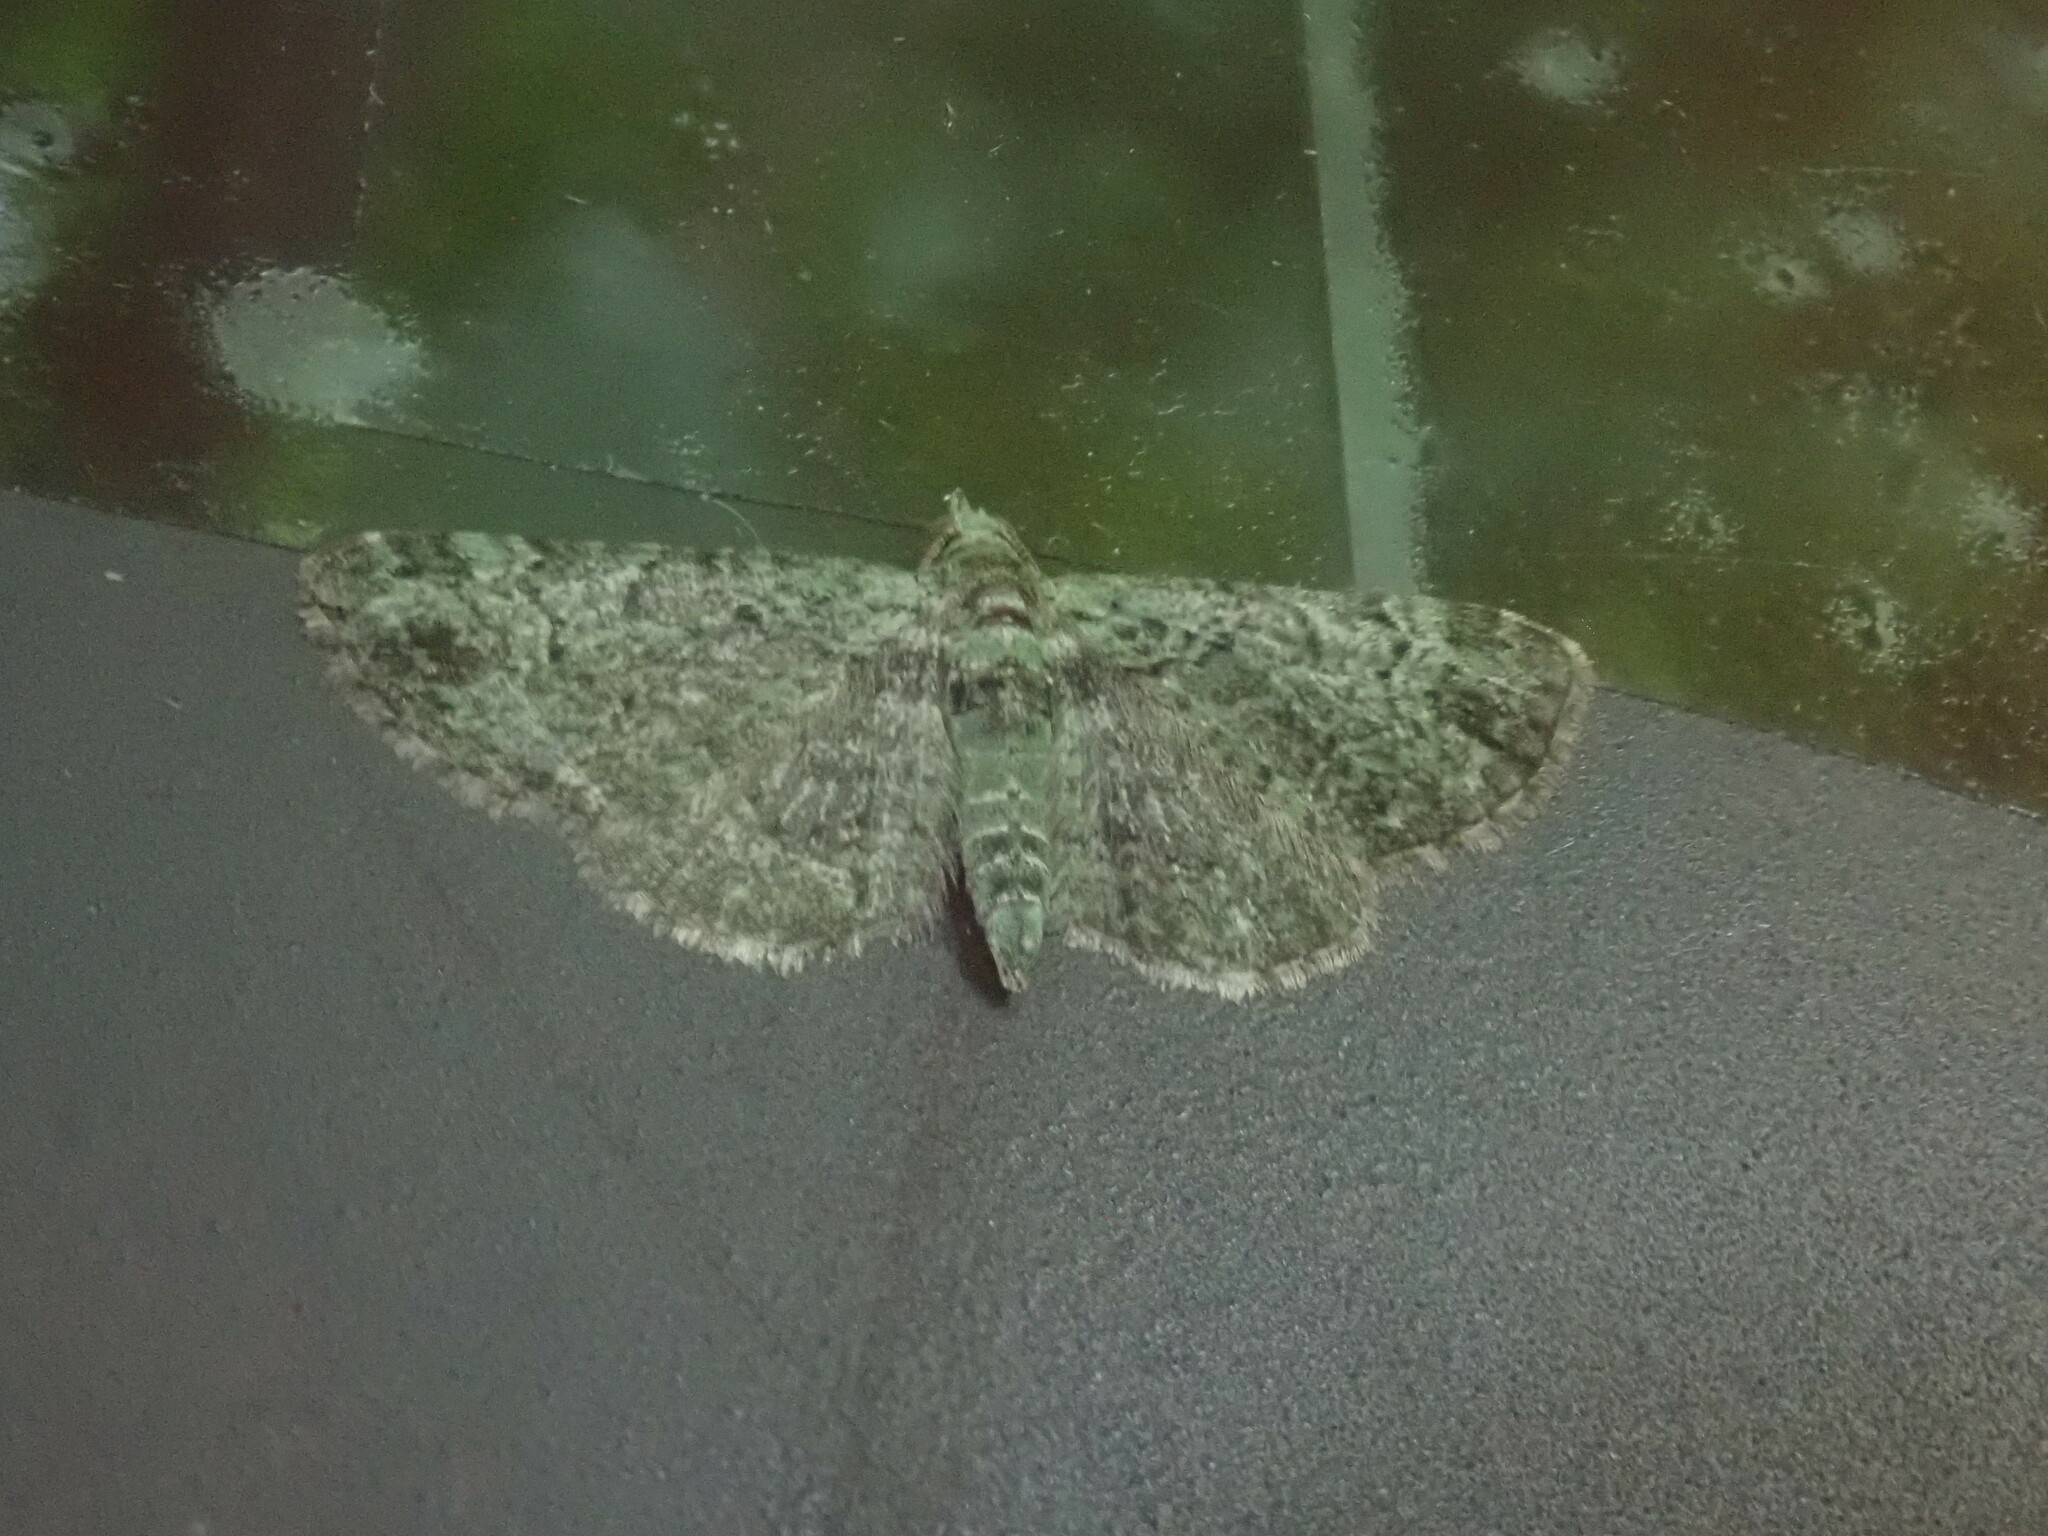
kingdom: Animalia
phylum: Arthropoda
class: Insecta
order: Lepidoptera
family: Geometridae
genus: Pasiphila
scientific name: Pasiphila rectangulata
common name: Green pug
